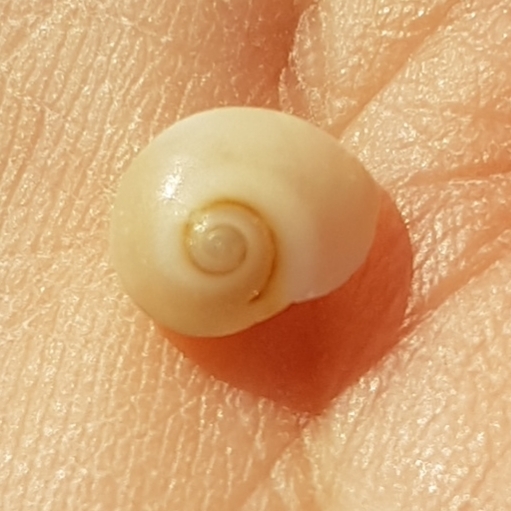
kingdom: Animalia
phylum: Mollusca
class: Gastropoda
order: Littorinimorpha
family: Naticidae
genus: Neverita
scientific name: Neverita josephinia
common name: Josephine's moonsnail
